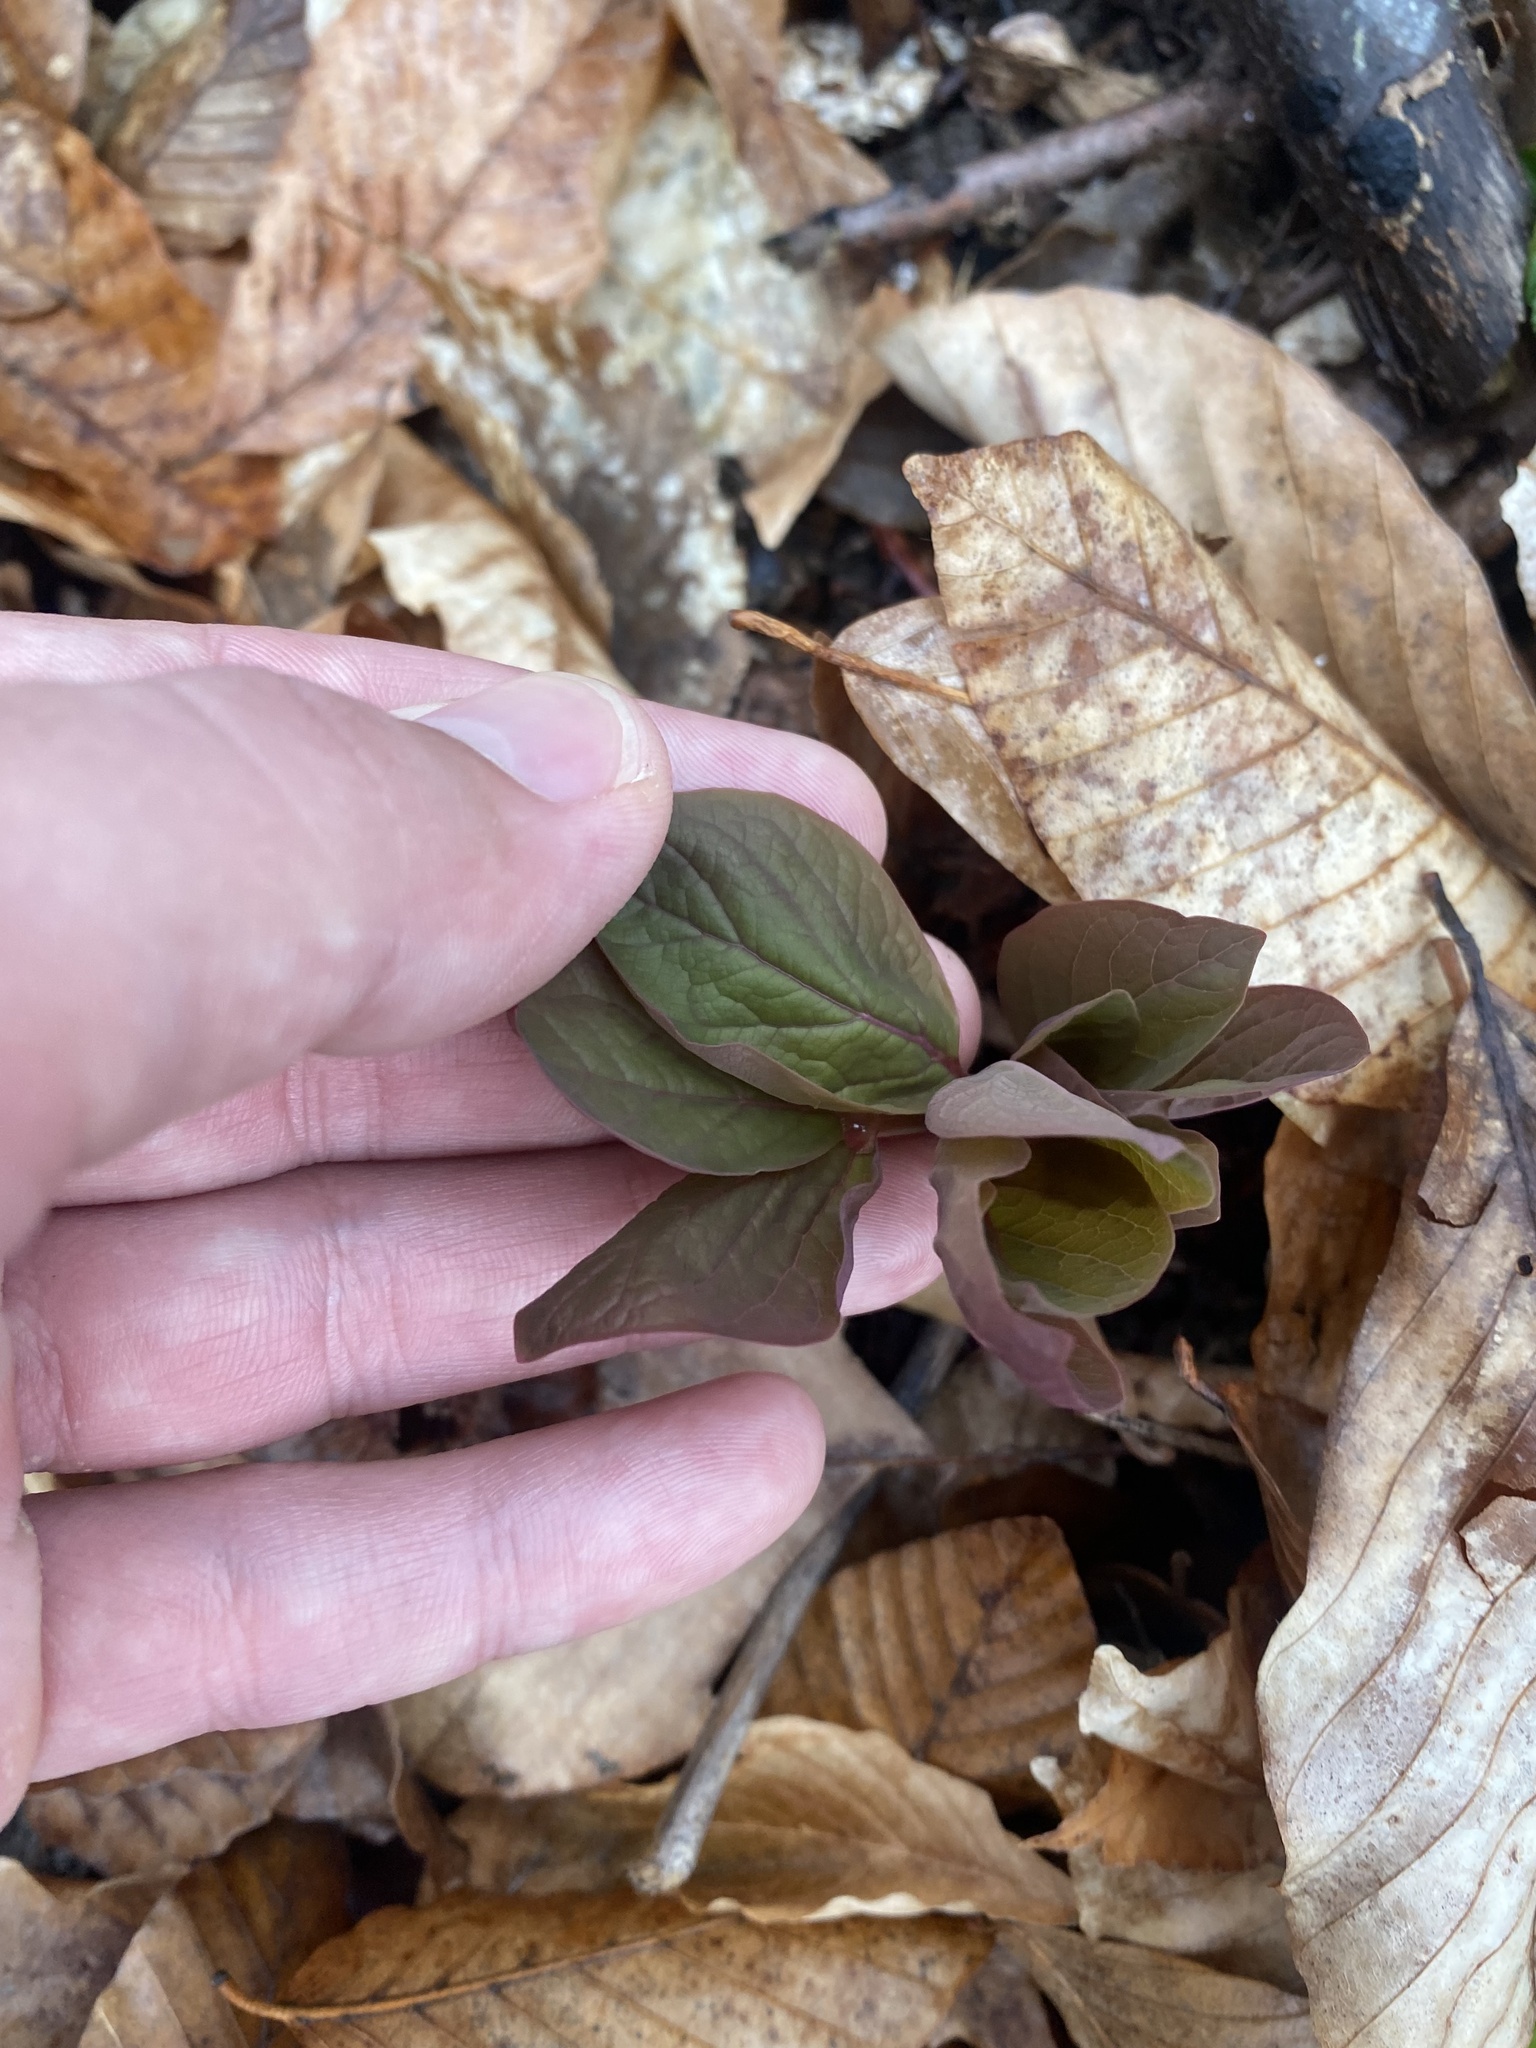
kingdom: Plantae
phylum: Tracheophyta
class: Magnoliopsida
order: Saxifragales
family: Paeoniaceae
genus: Paeonia
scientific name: Paeonia caucasica
